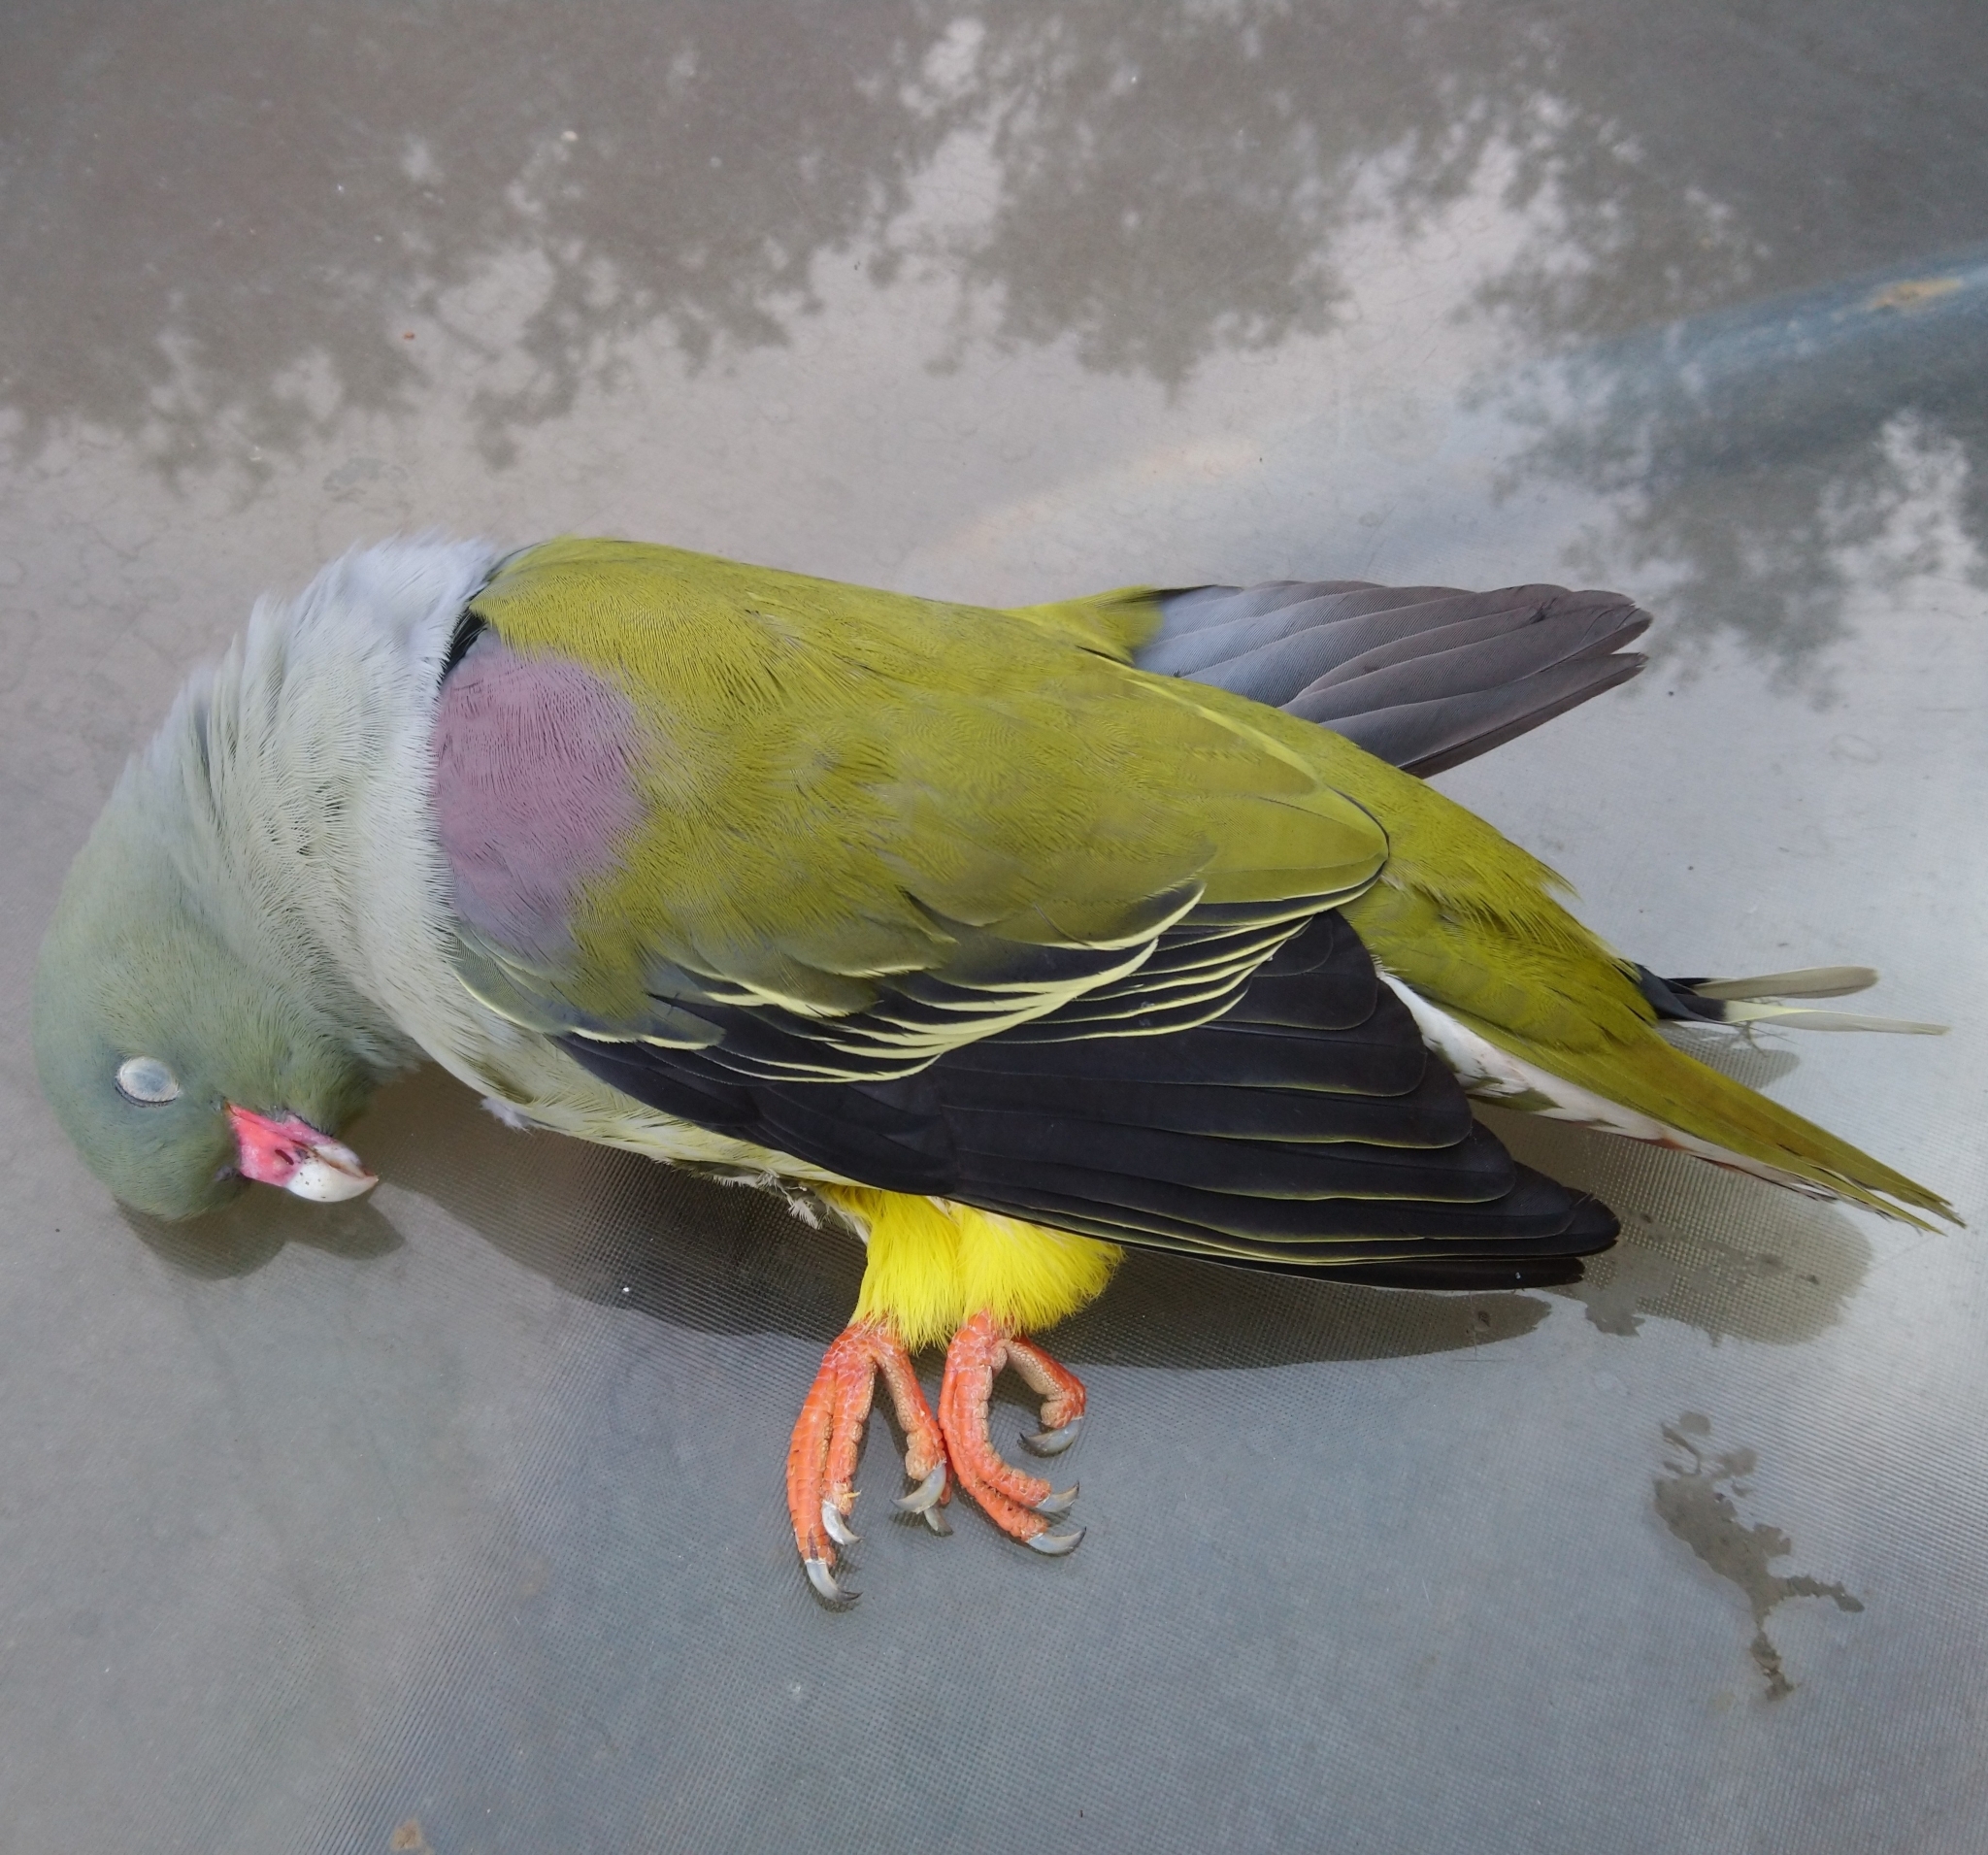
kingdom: Animalia
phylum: Chordata
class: Aves
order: Columbiformes
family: Columbidae
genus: Treron
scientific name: Treron calvus
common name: African green pigeon
